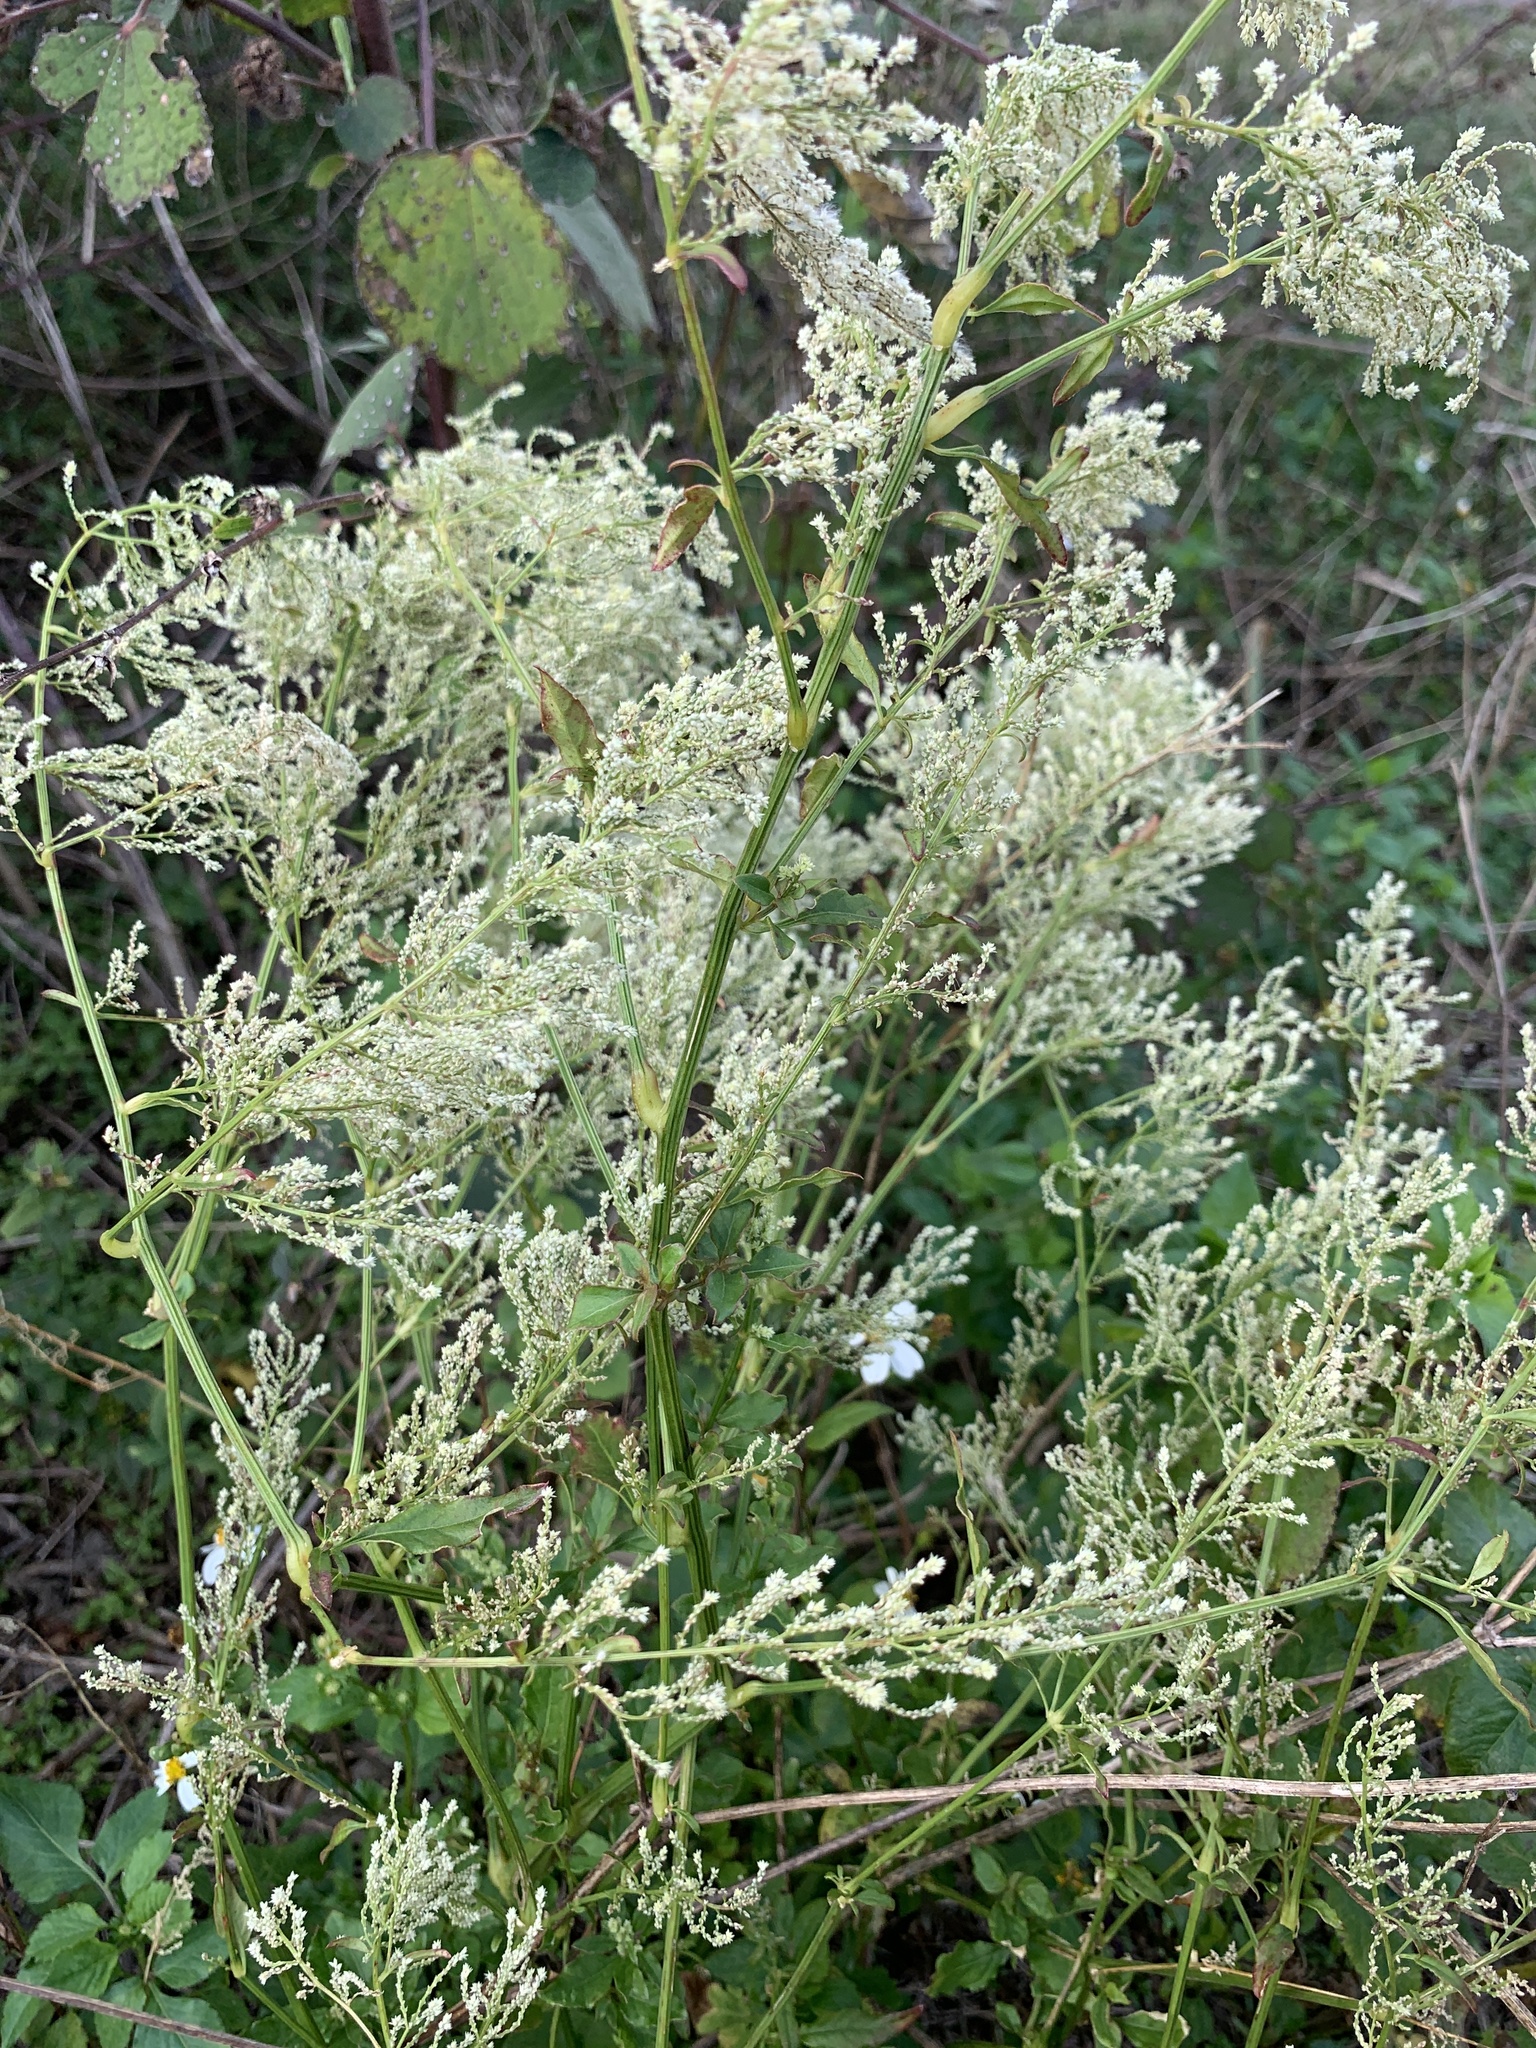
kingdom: Plantae
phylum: Tracheophyta
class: Magnoliopsida
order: Caryophyllales
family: Amaranthaceae
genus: Iresine
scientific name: Iresine diffusa
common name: Juba's-bush
